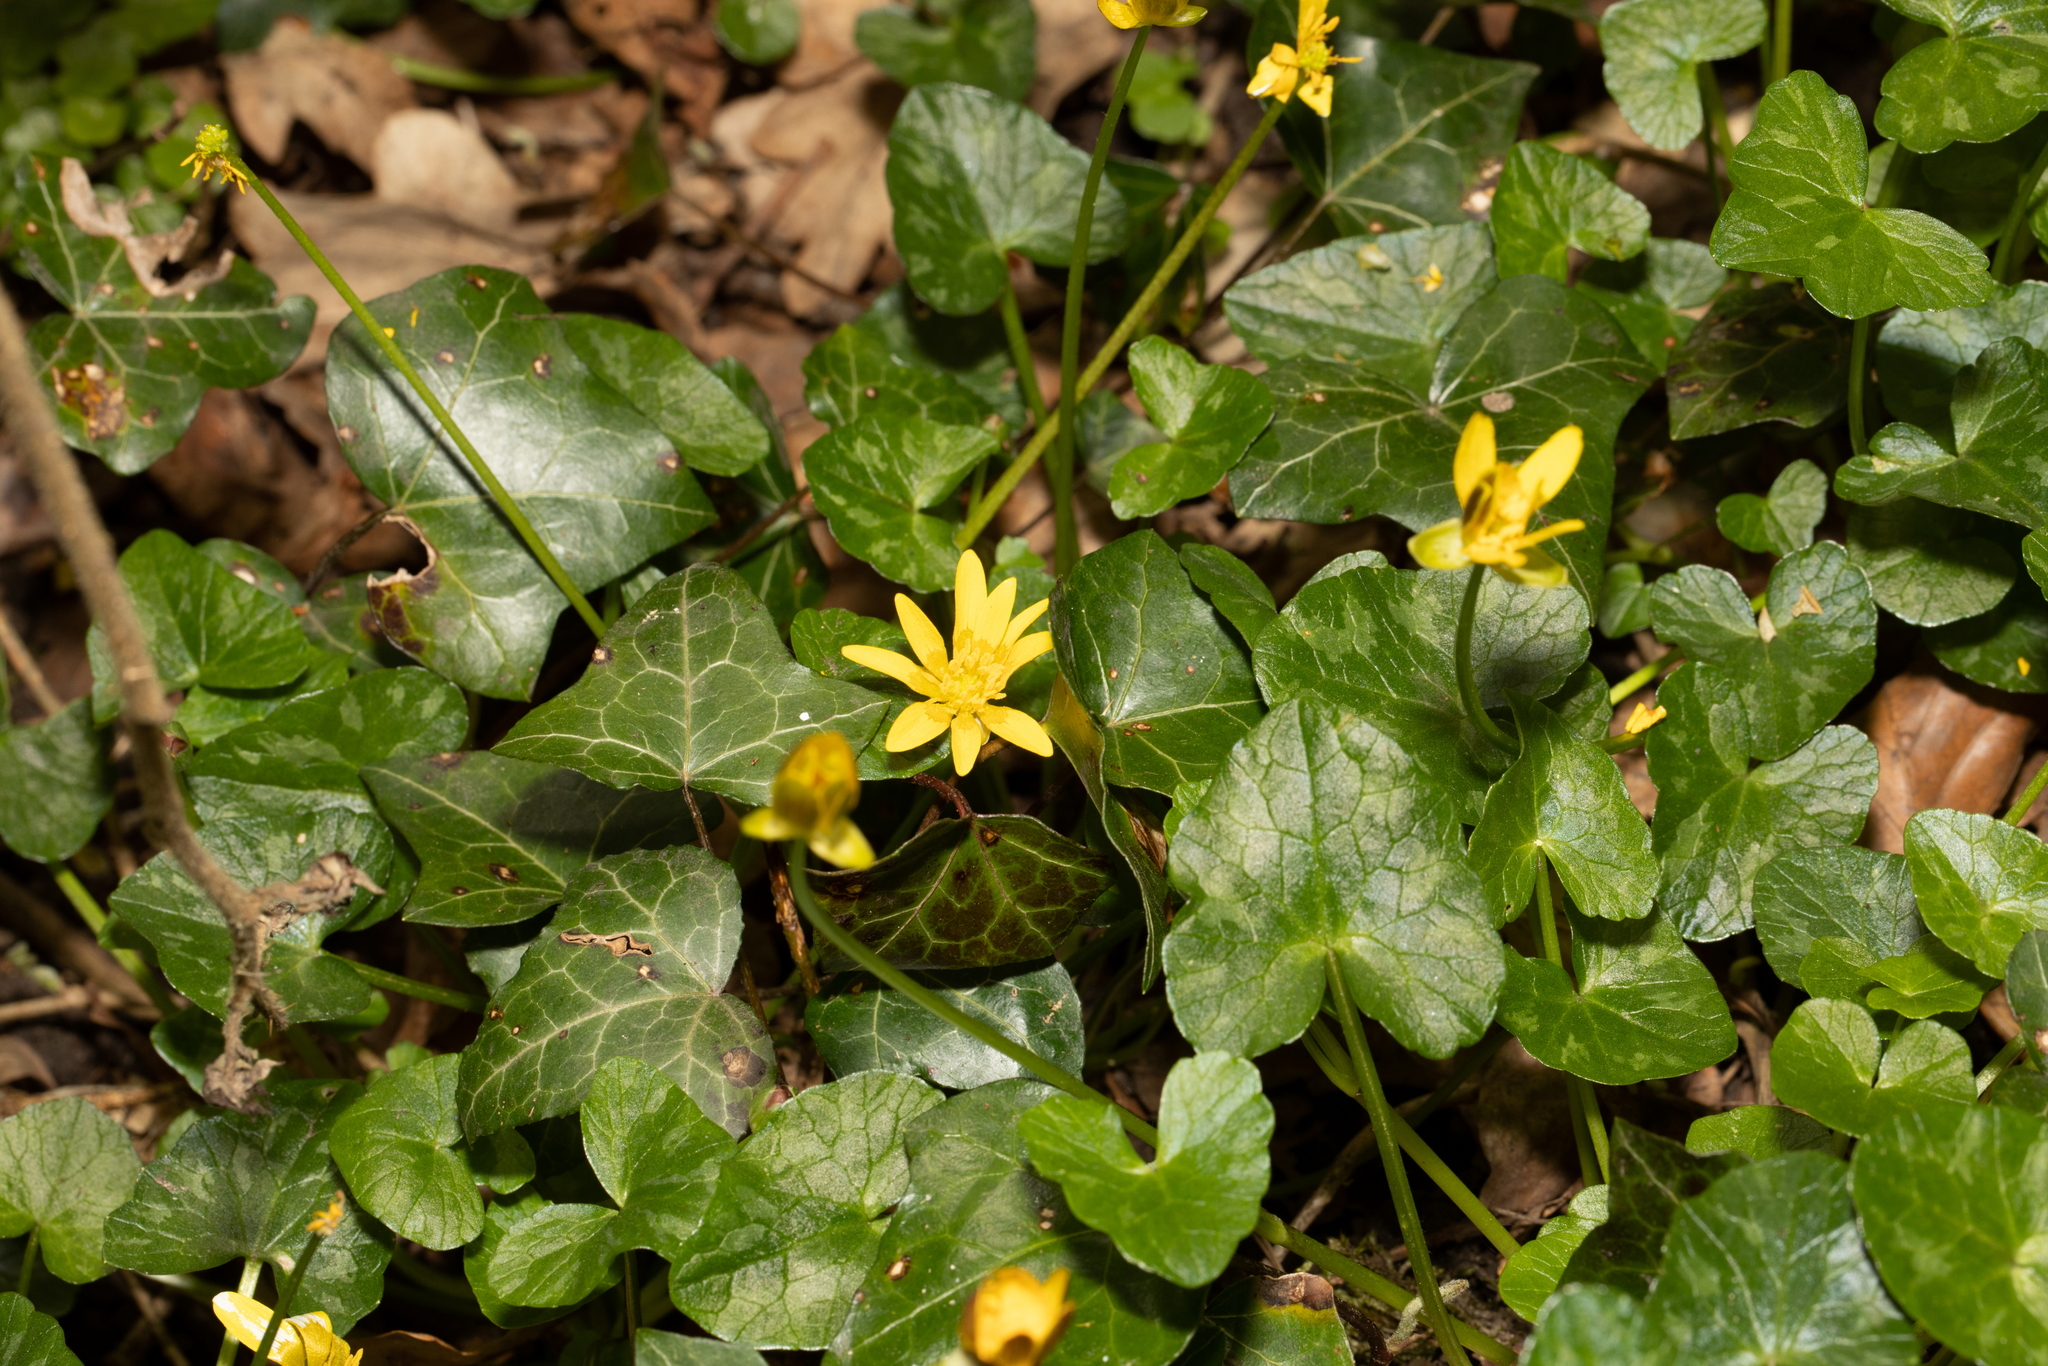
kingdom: Plantae
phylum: Tracheophyta
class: Magnoliopsida
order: Ranunculales
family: Ranunculaceae
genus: Ficaria
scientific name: Ficaria verna
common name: Lesser celandine
